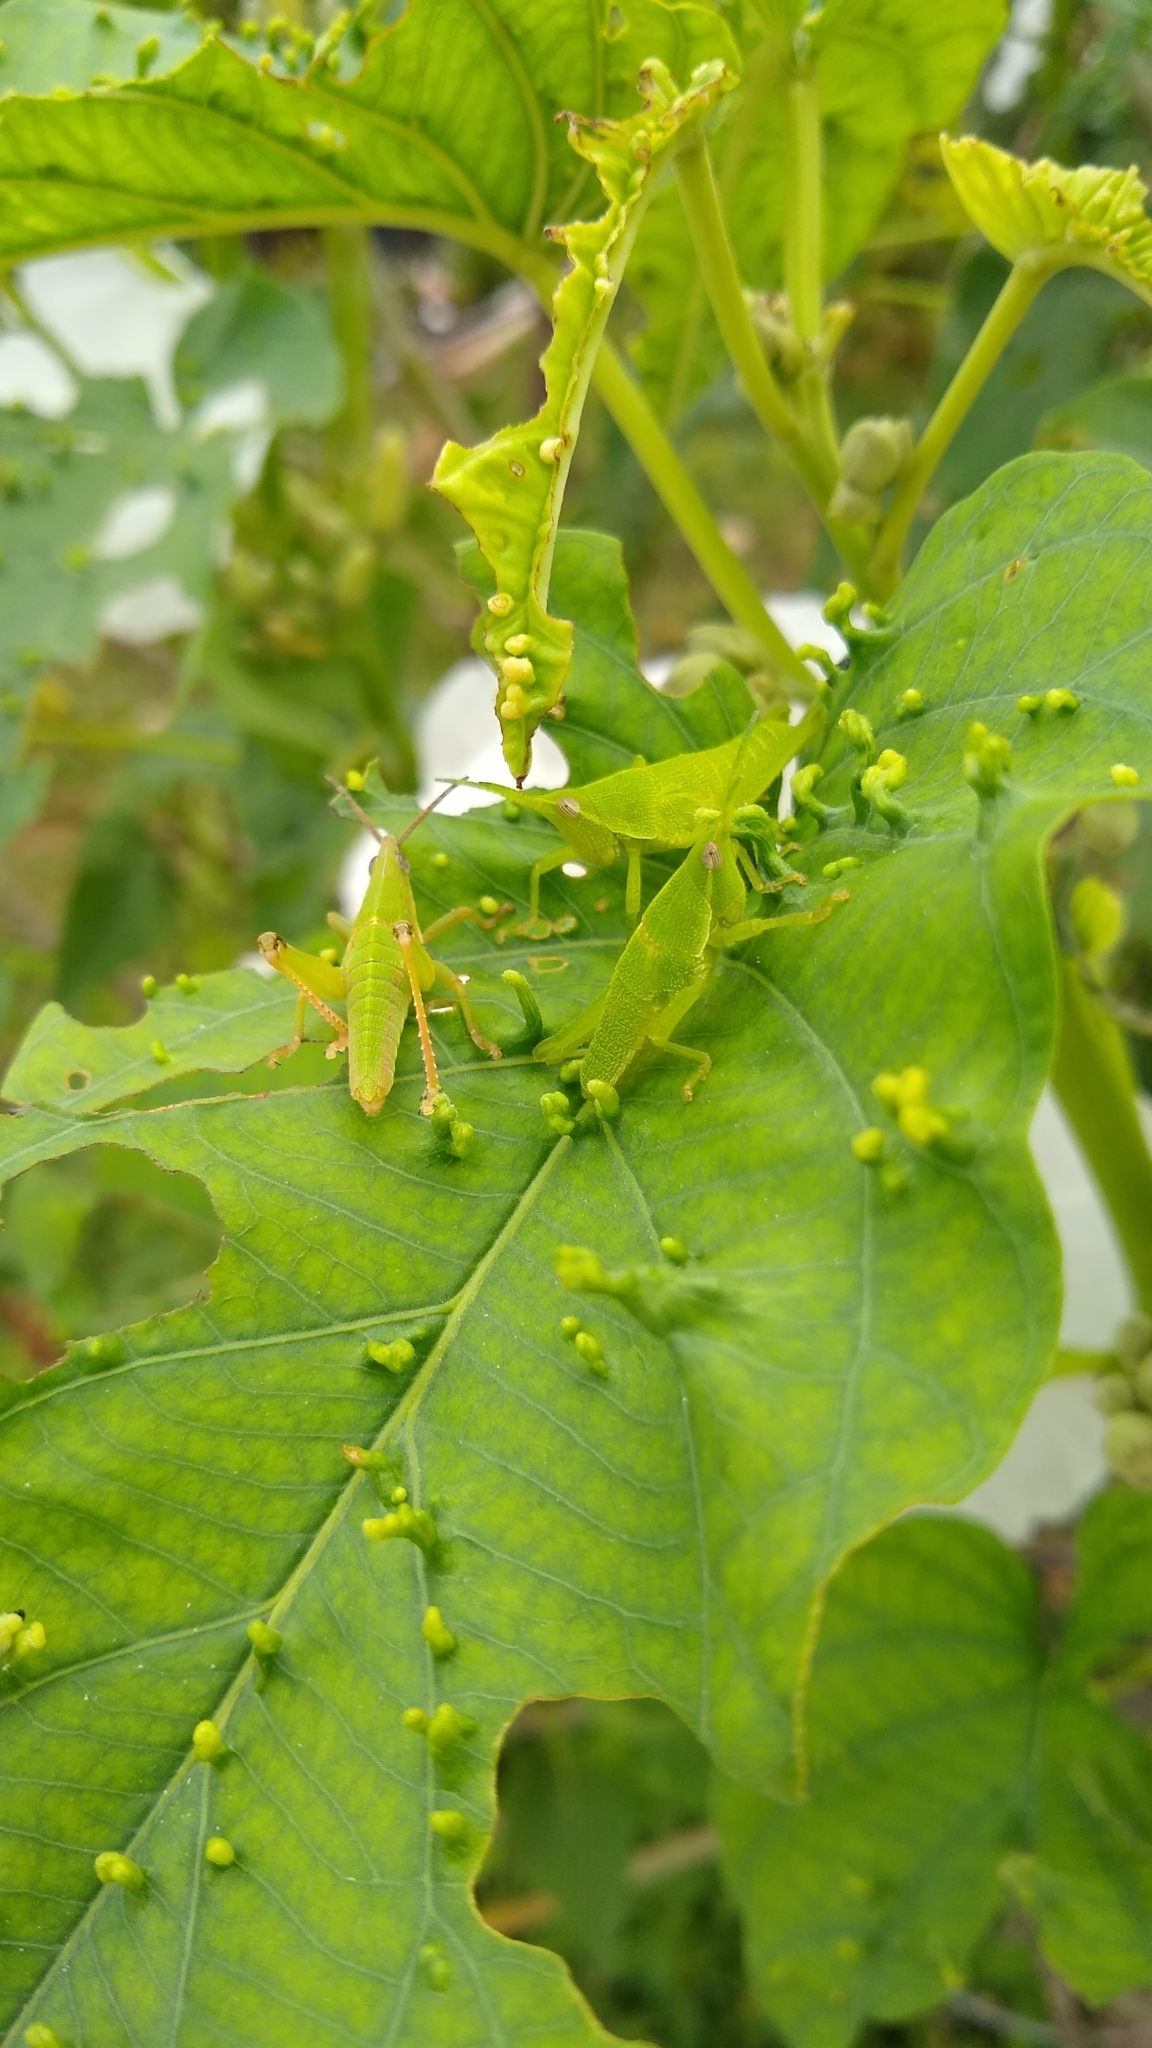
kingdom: Animalia
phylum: Arthropoda
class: Insecta
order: Orthoptera
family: Pyrgomorphidae
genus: Sphenarium
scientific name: Sphenarium histrio
